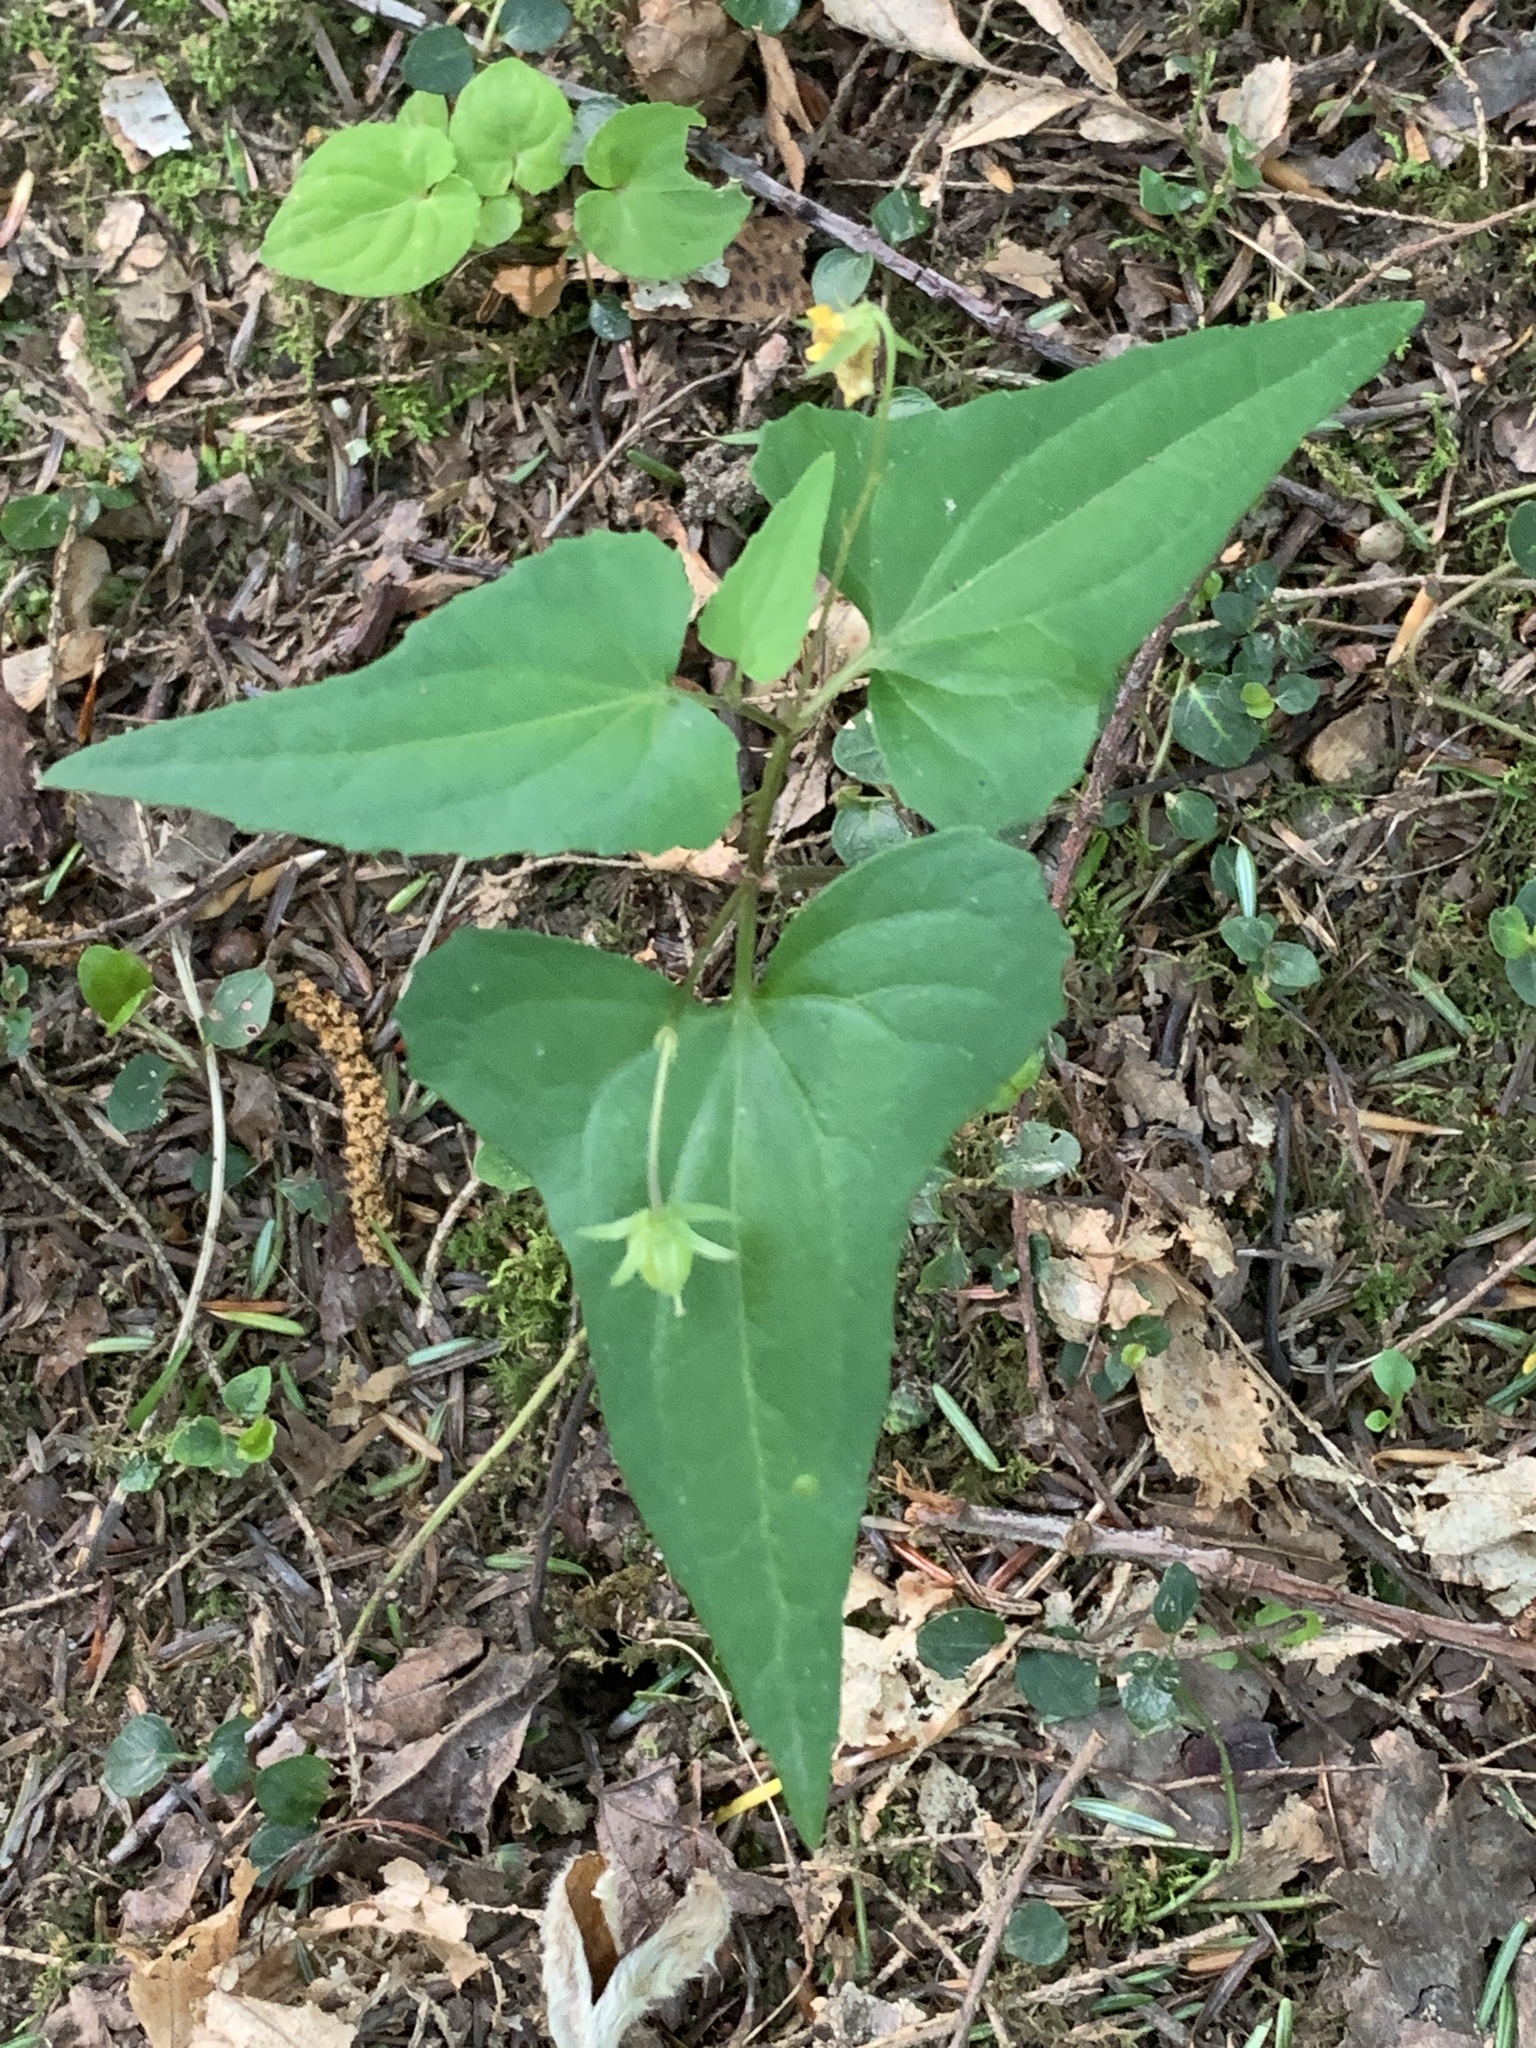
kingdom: Plantae
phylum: Tracheophyta
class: Magnoliopsida
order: Malpighiales
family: Violaceae
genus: Viola
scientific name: Viola hastata
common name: Spear-leaf violet
